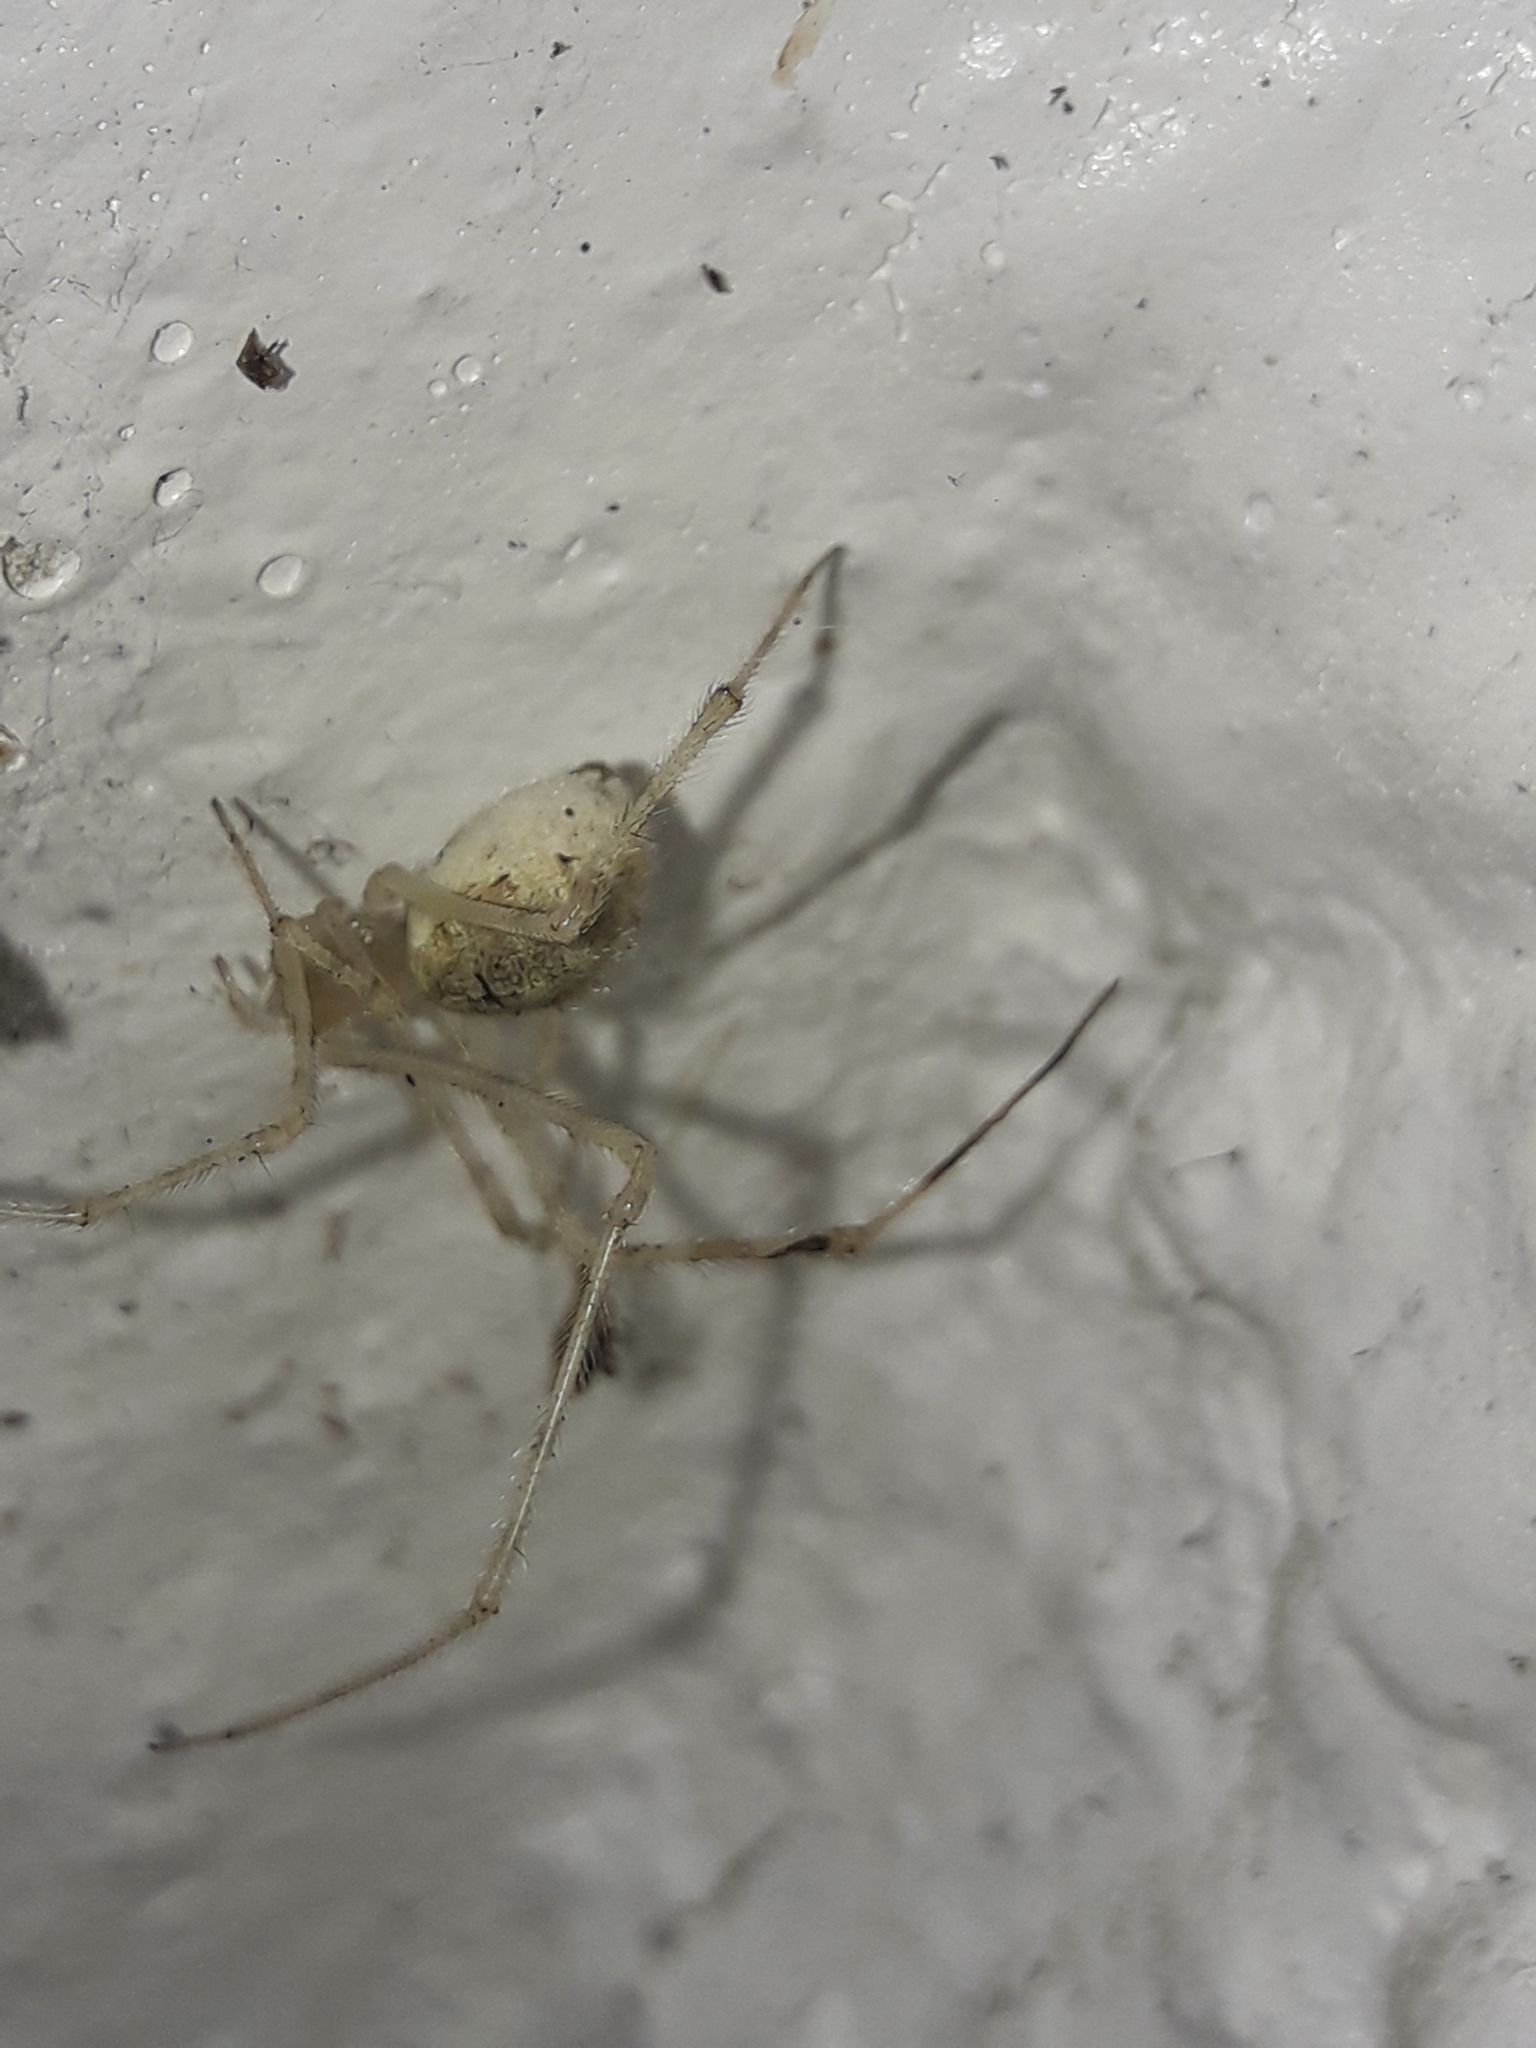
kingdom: Animalia
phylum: Arthropoda
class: Arachnida
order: Araneae
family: Theridiidae
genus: Cryptachaea
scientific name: Cryptachaea gigantipes
